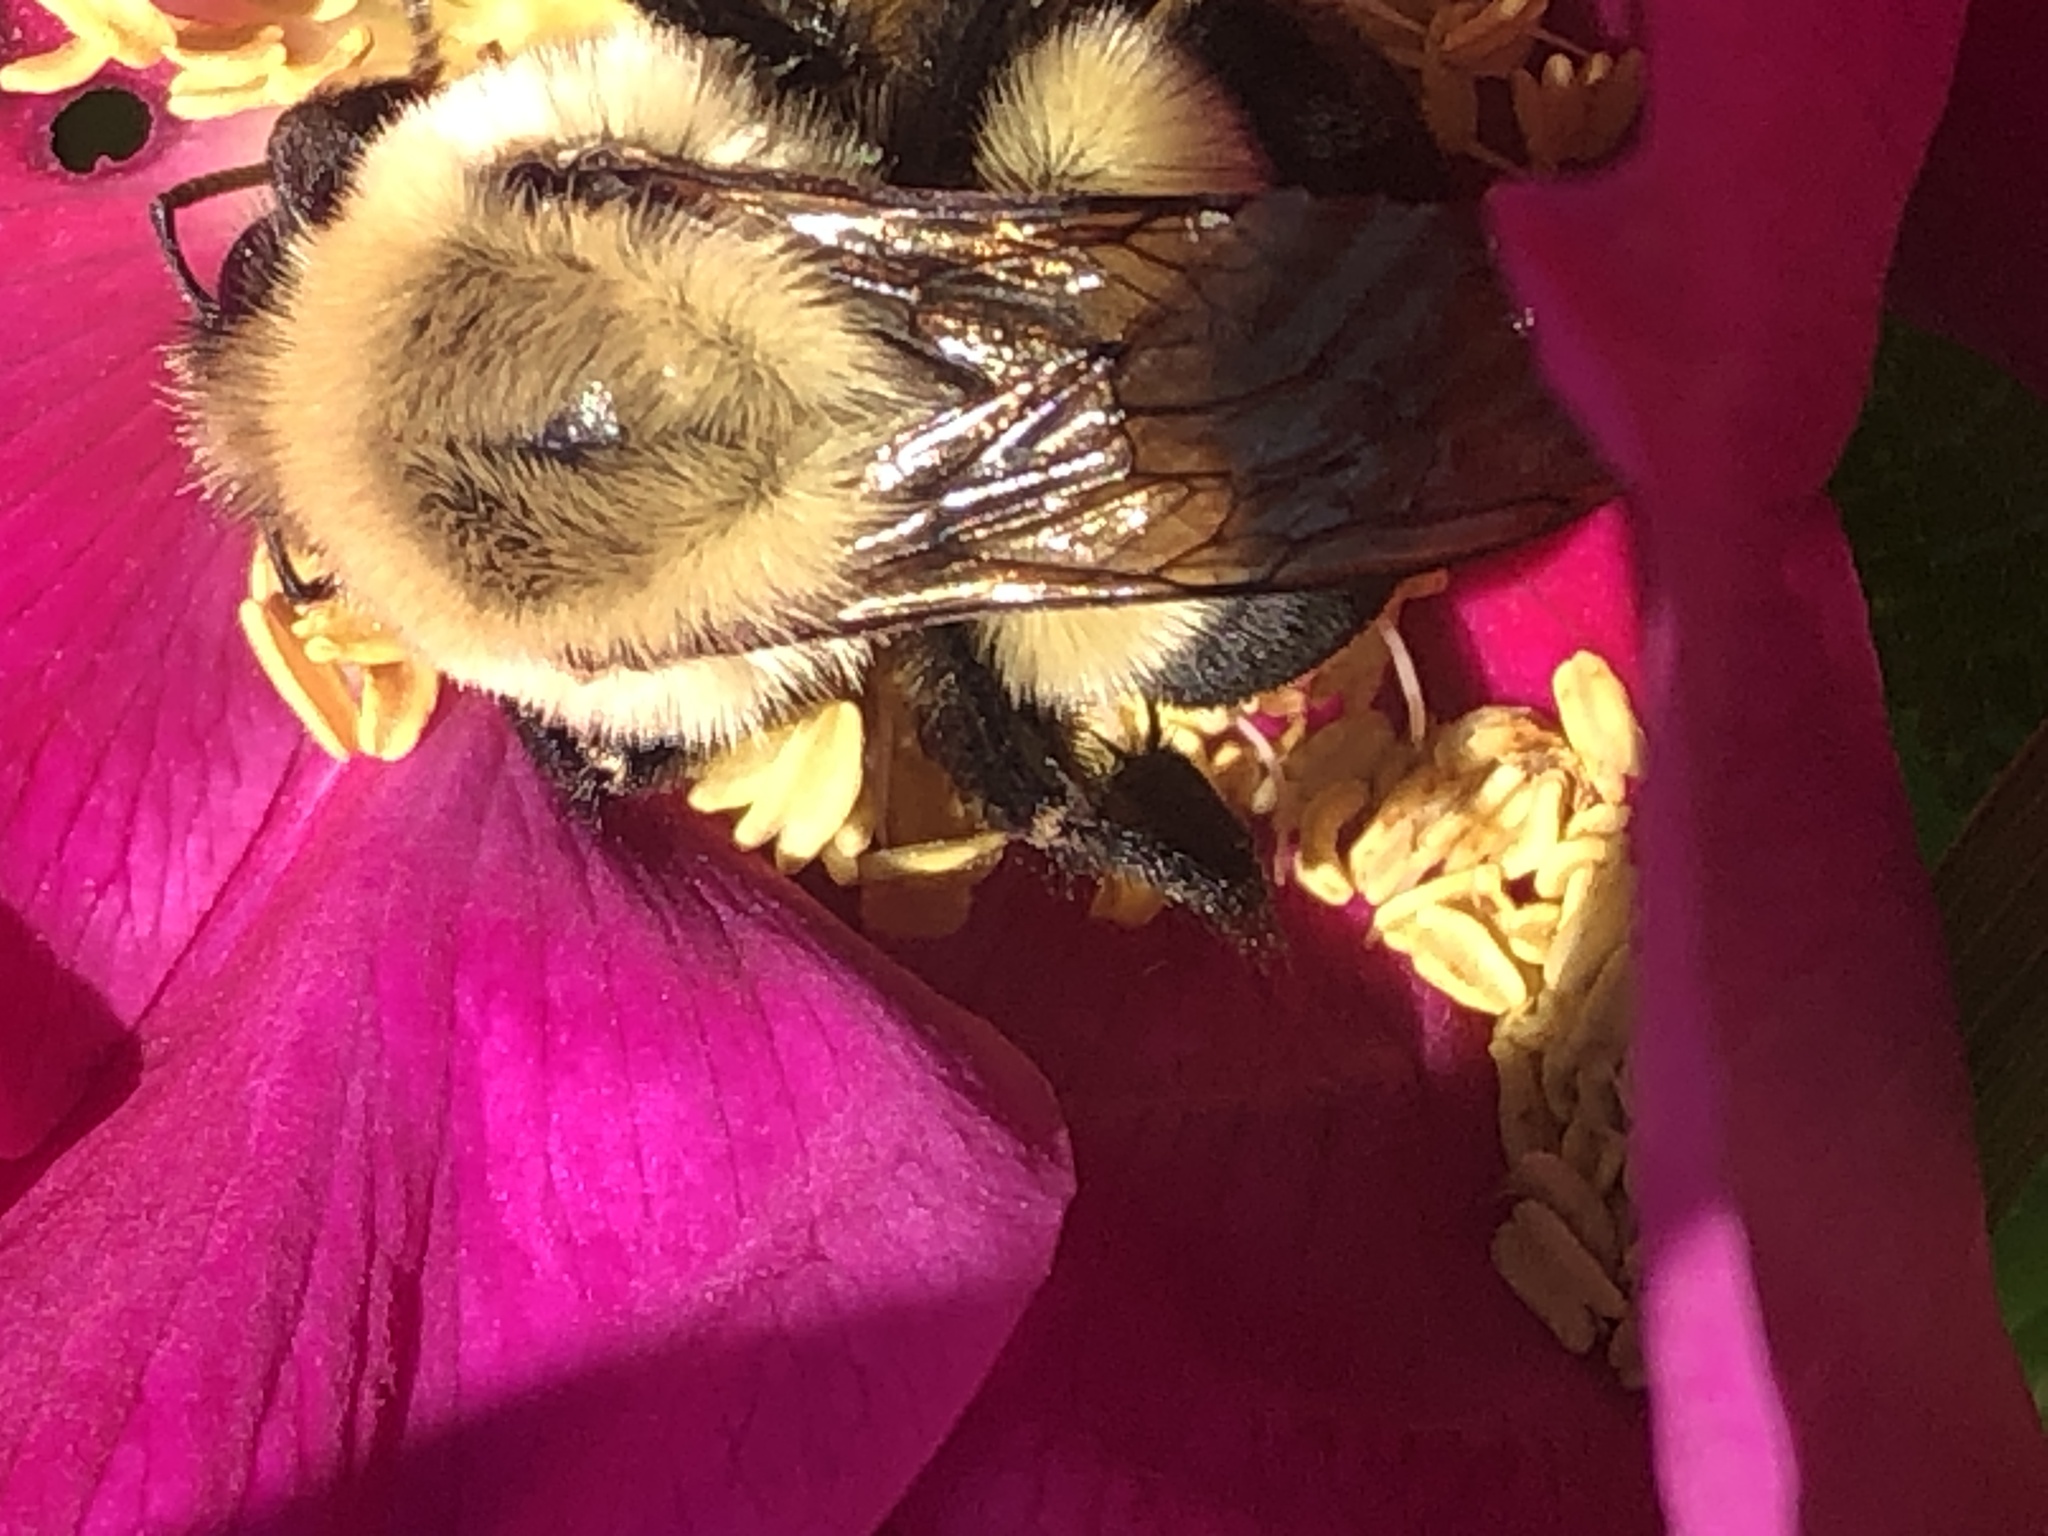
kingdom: Animalia
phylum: Arthropoda
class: Insecta
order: Hymenoptera
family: Apidae
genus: Bombus
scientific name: Bombus impatiens
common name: Common eastern bumble bee
